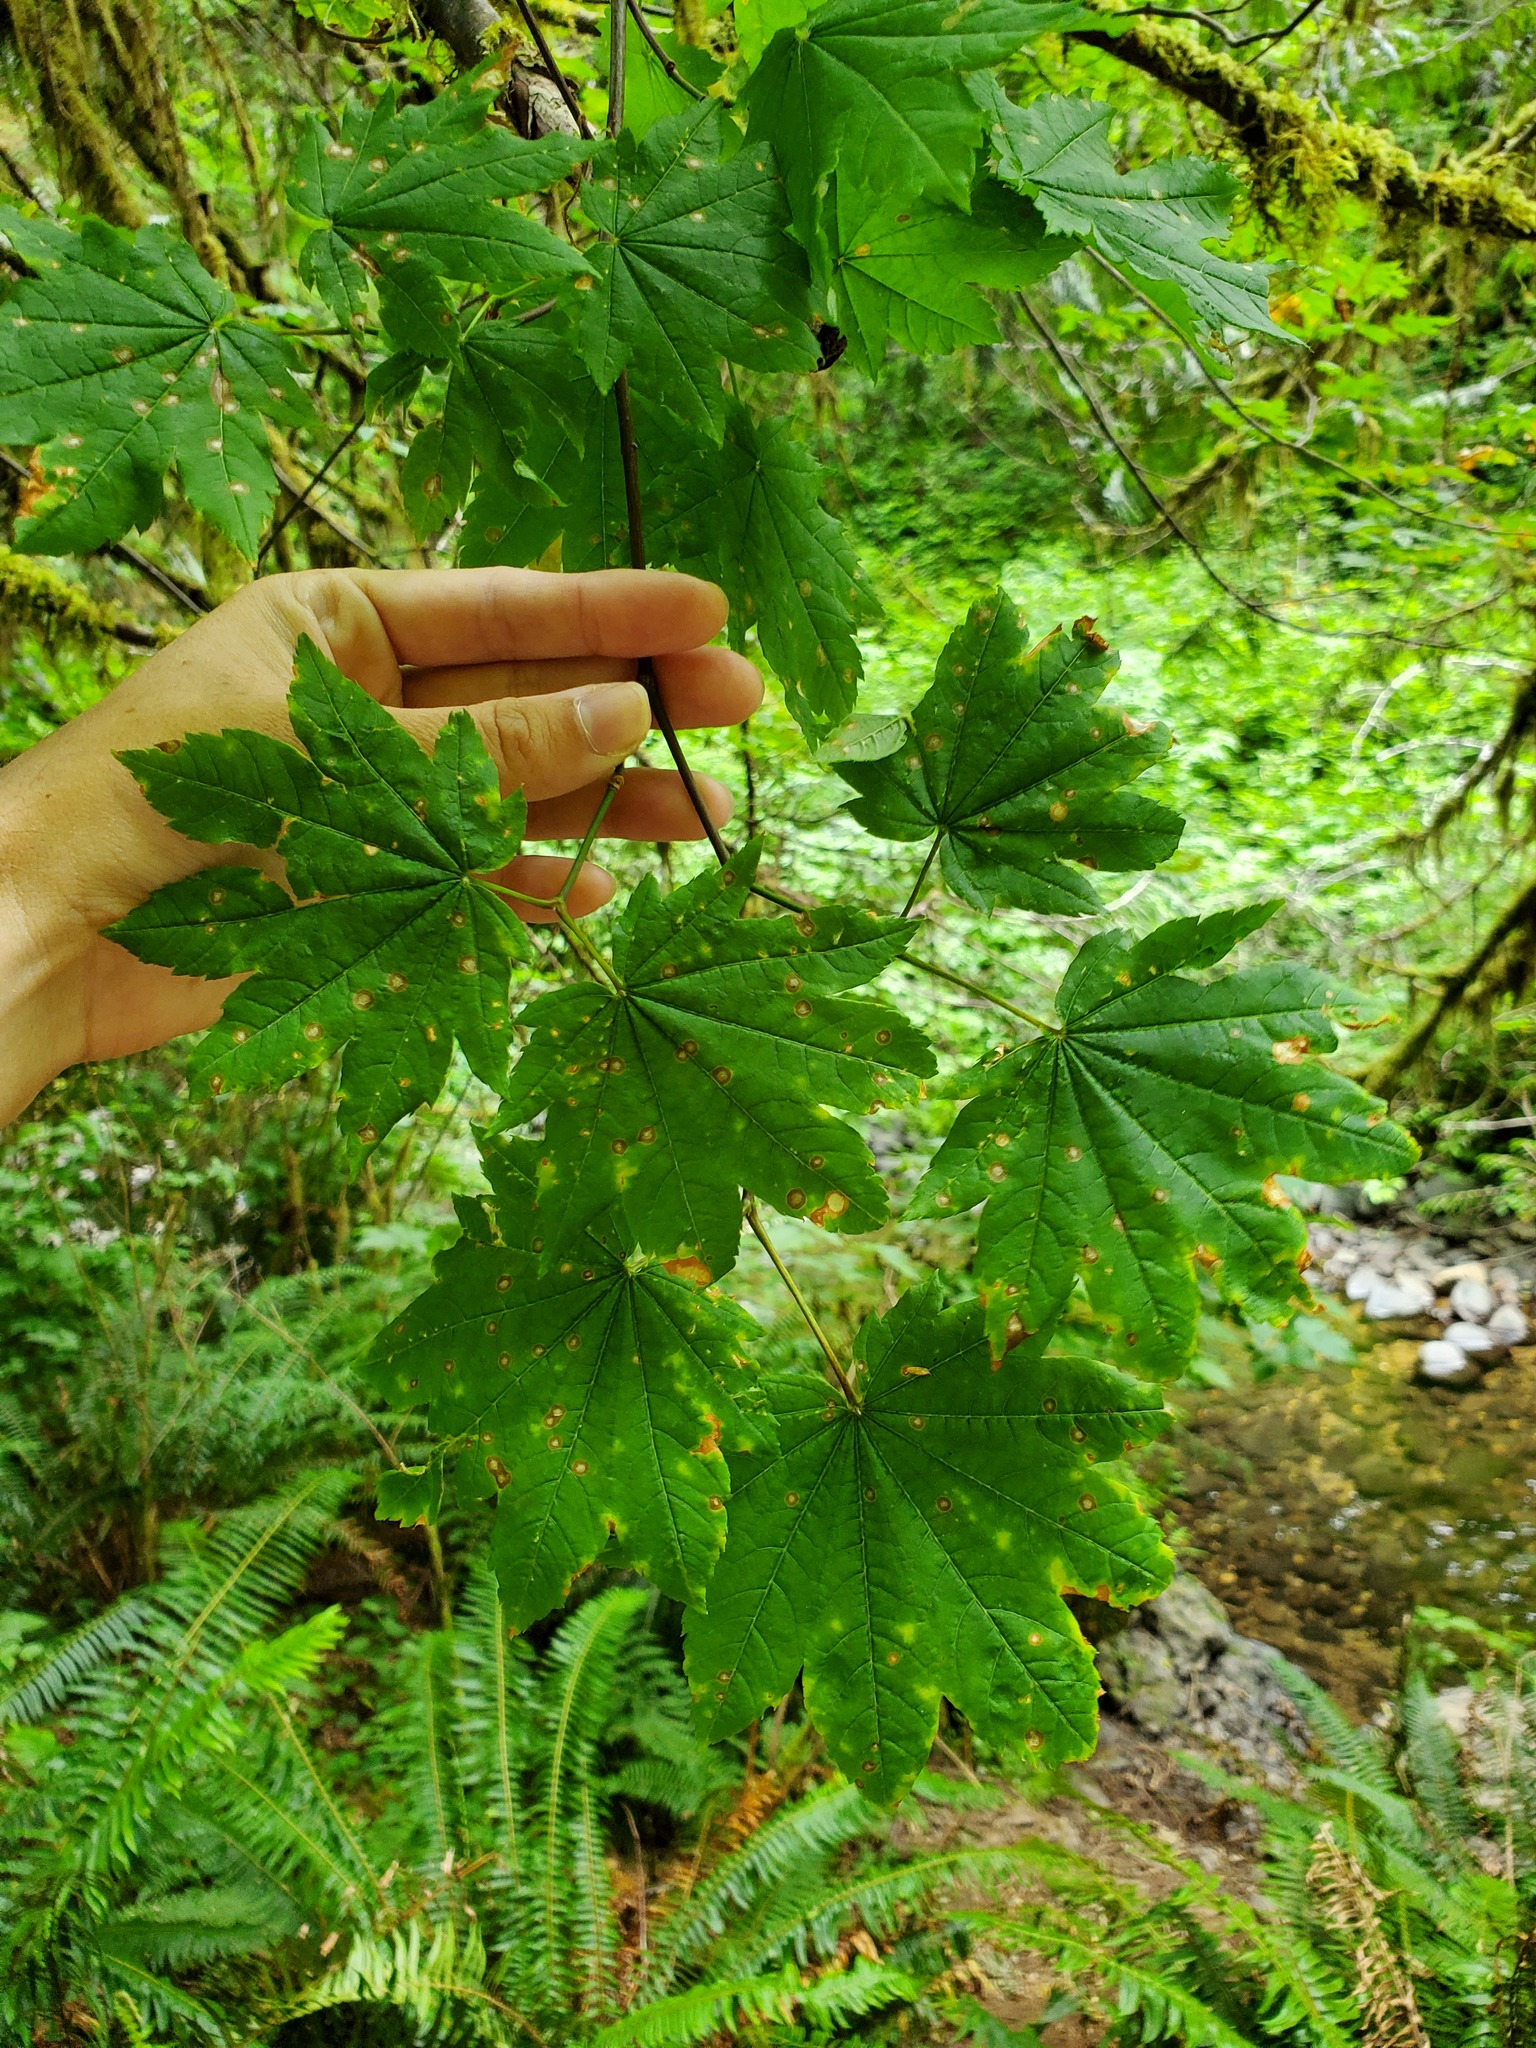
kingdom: Plantae
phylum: Tracheophyta
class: Magnoliopsida
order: Sapindales
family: Sapindaceae
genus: Acer
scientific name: Acer circinatum
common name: Vine maple
